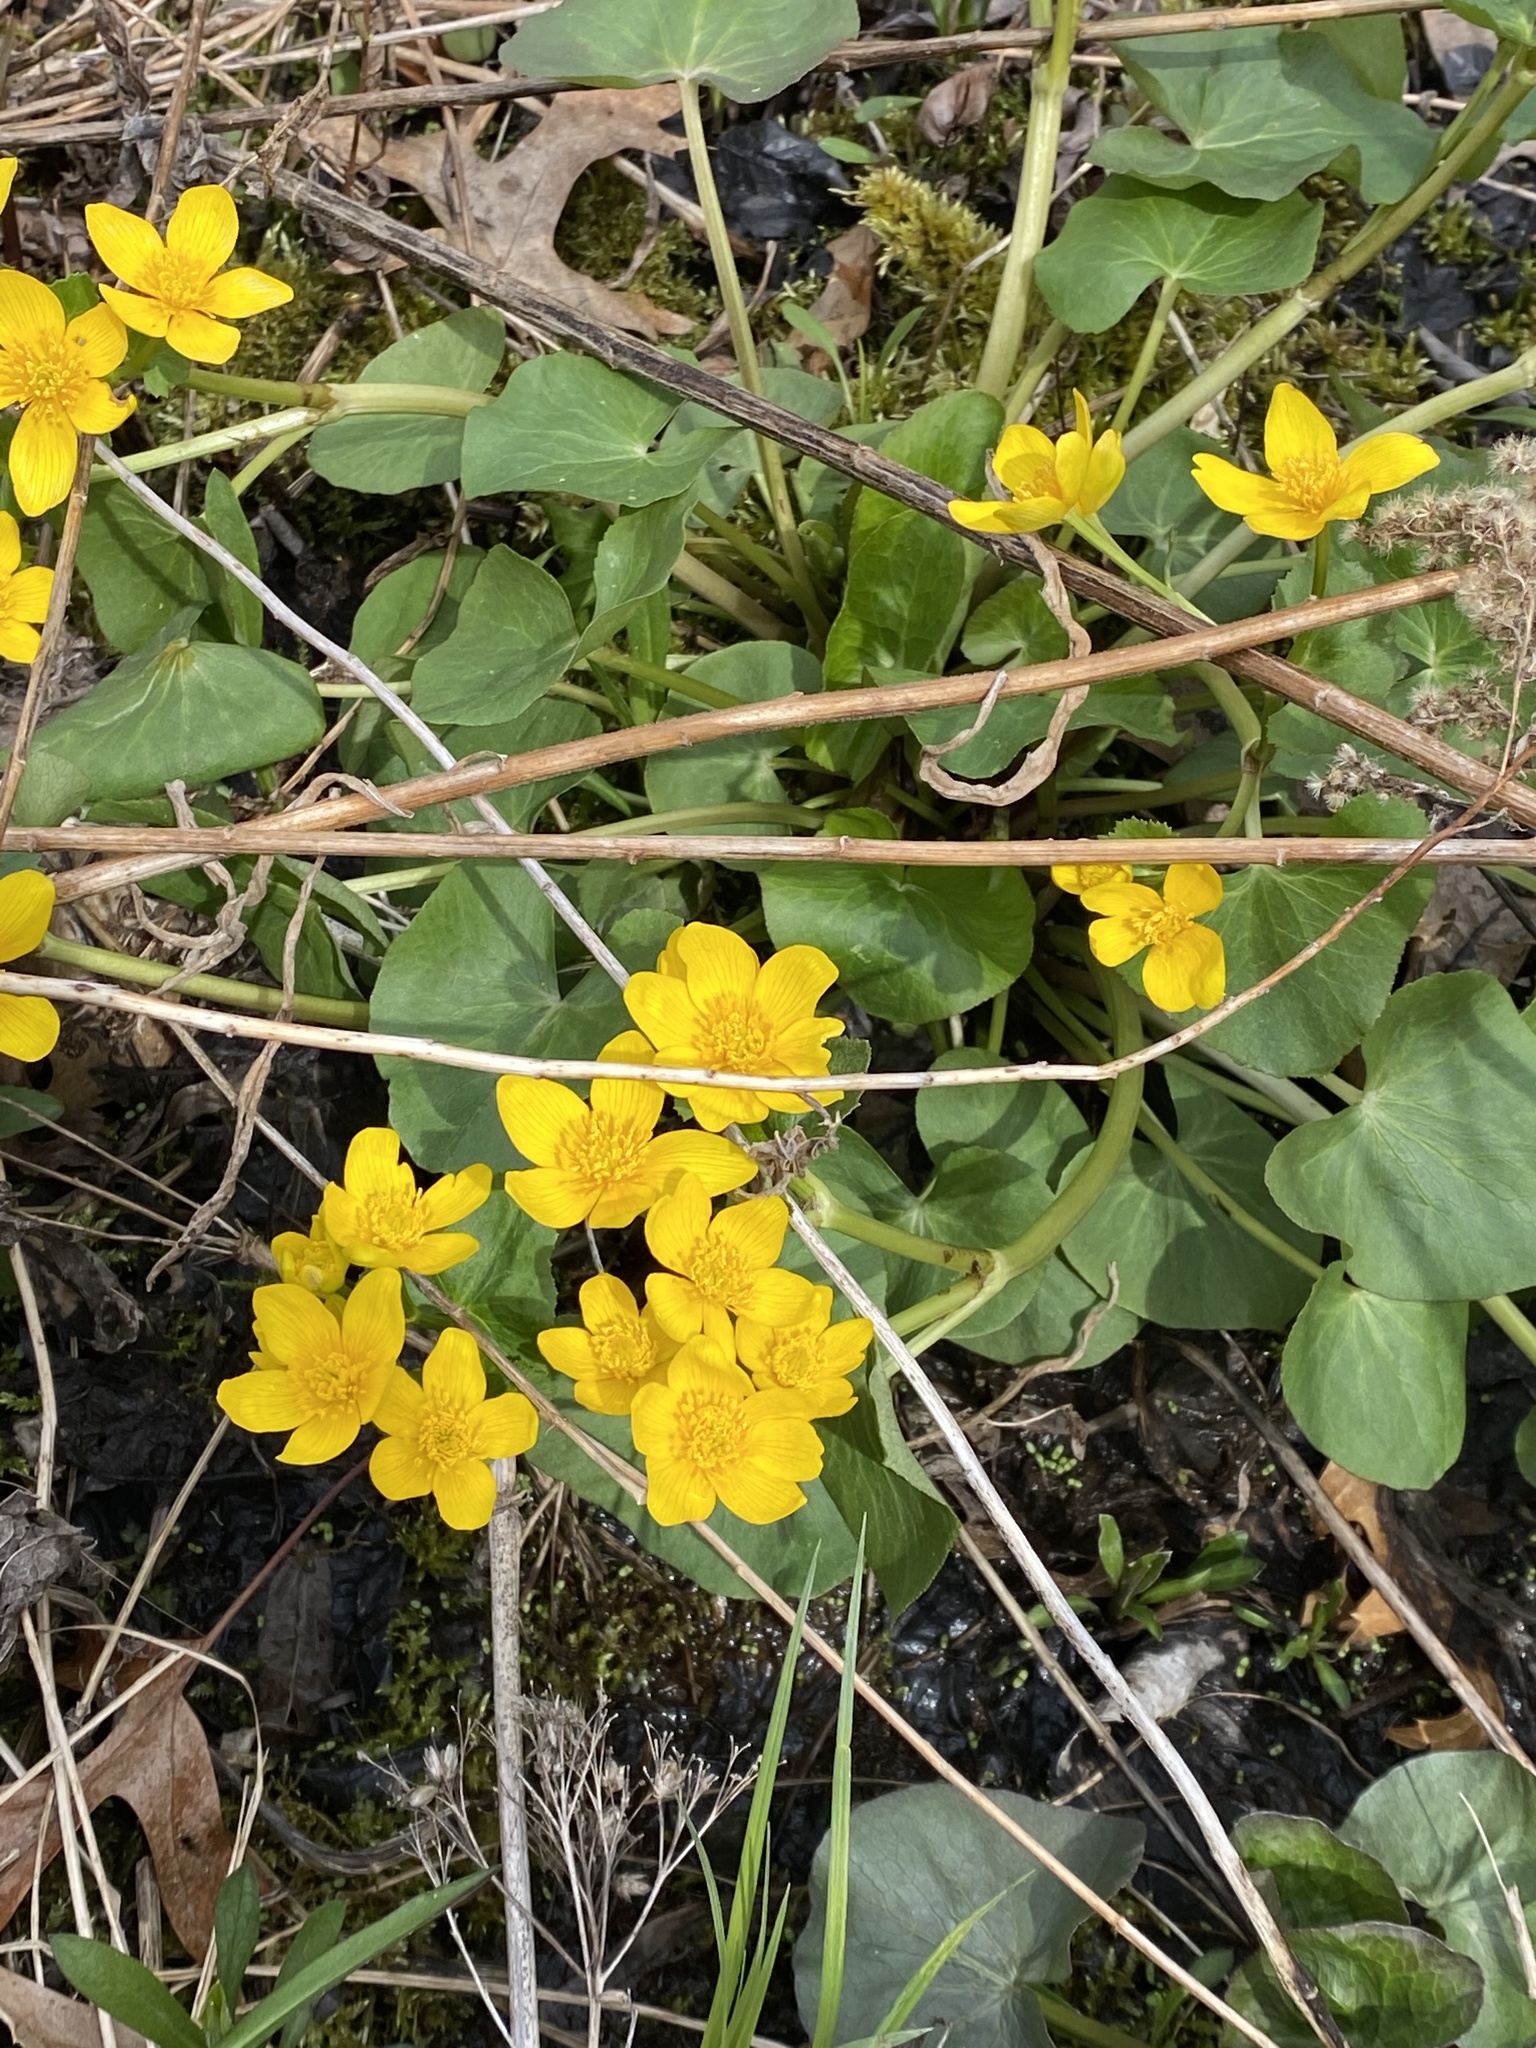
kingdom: Plantae
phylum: Tracheophyta
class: Magnoliopsida
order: Ranunculales
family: Ranunculaceae
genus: Caltha
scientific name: Caltha palustris
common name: Marsh marigold
